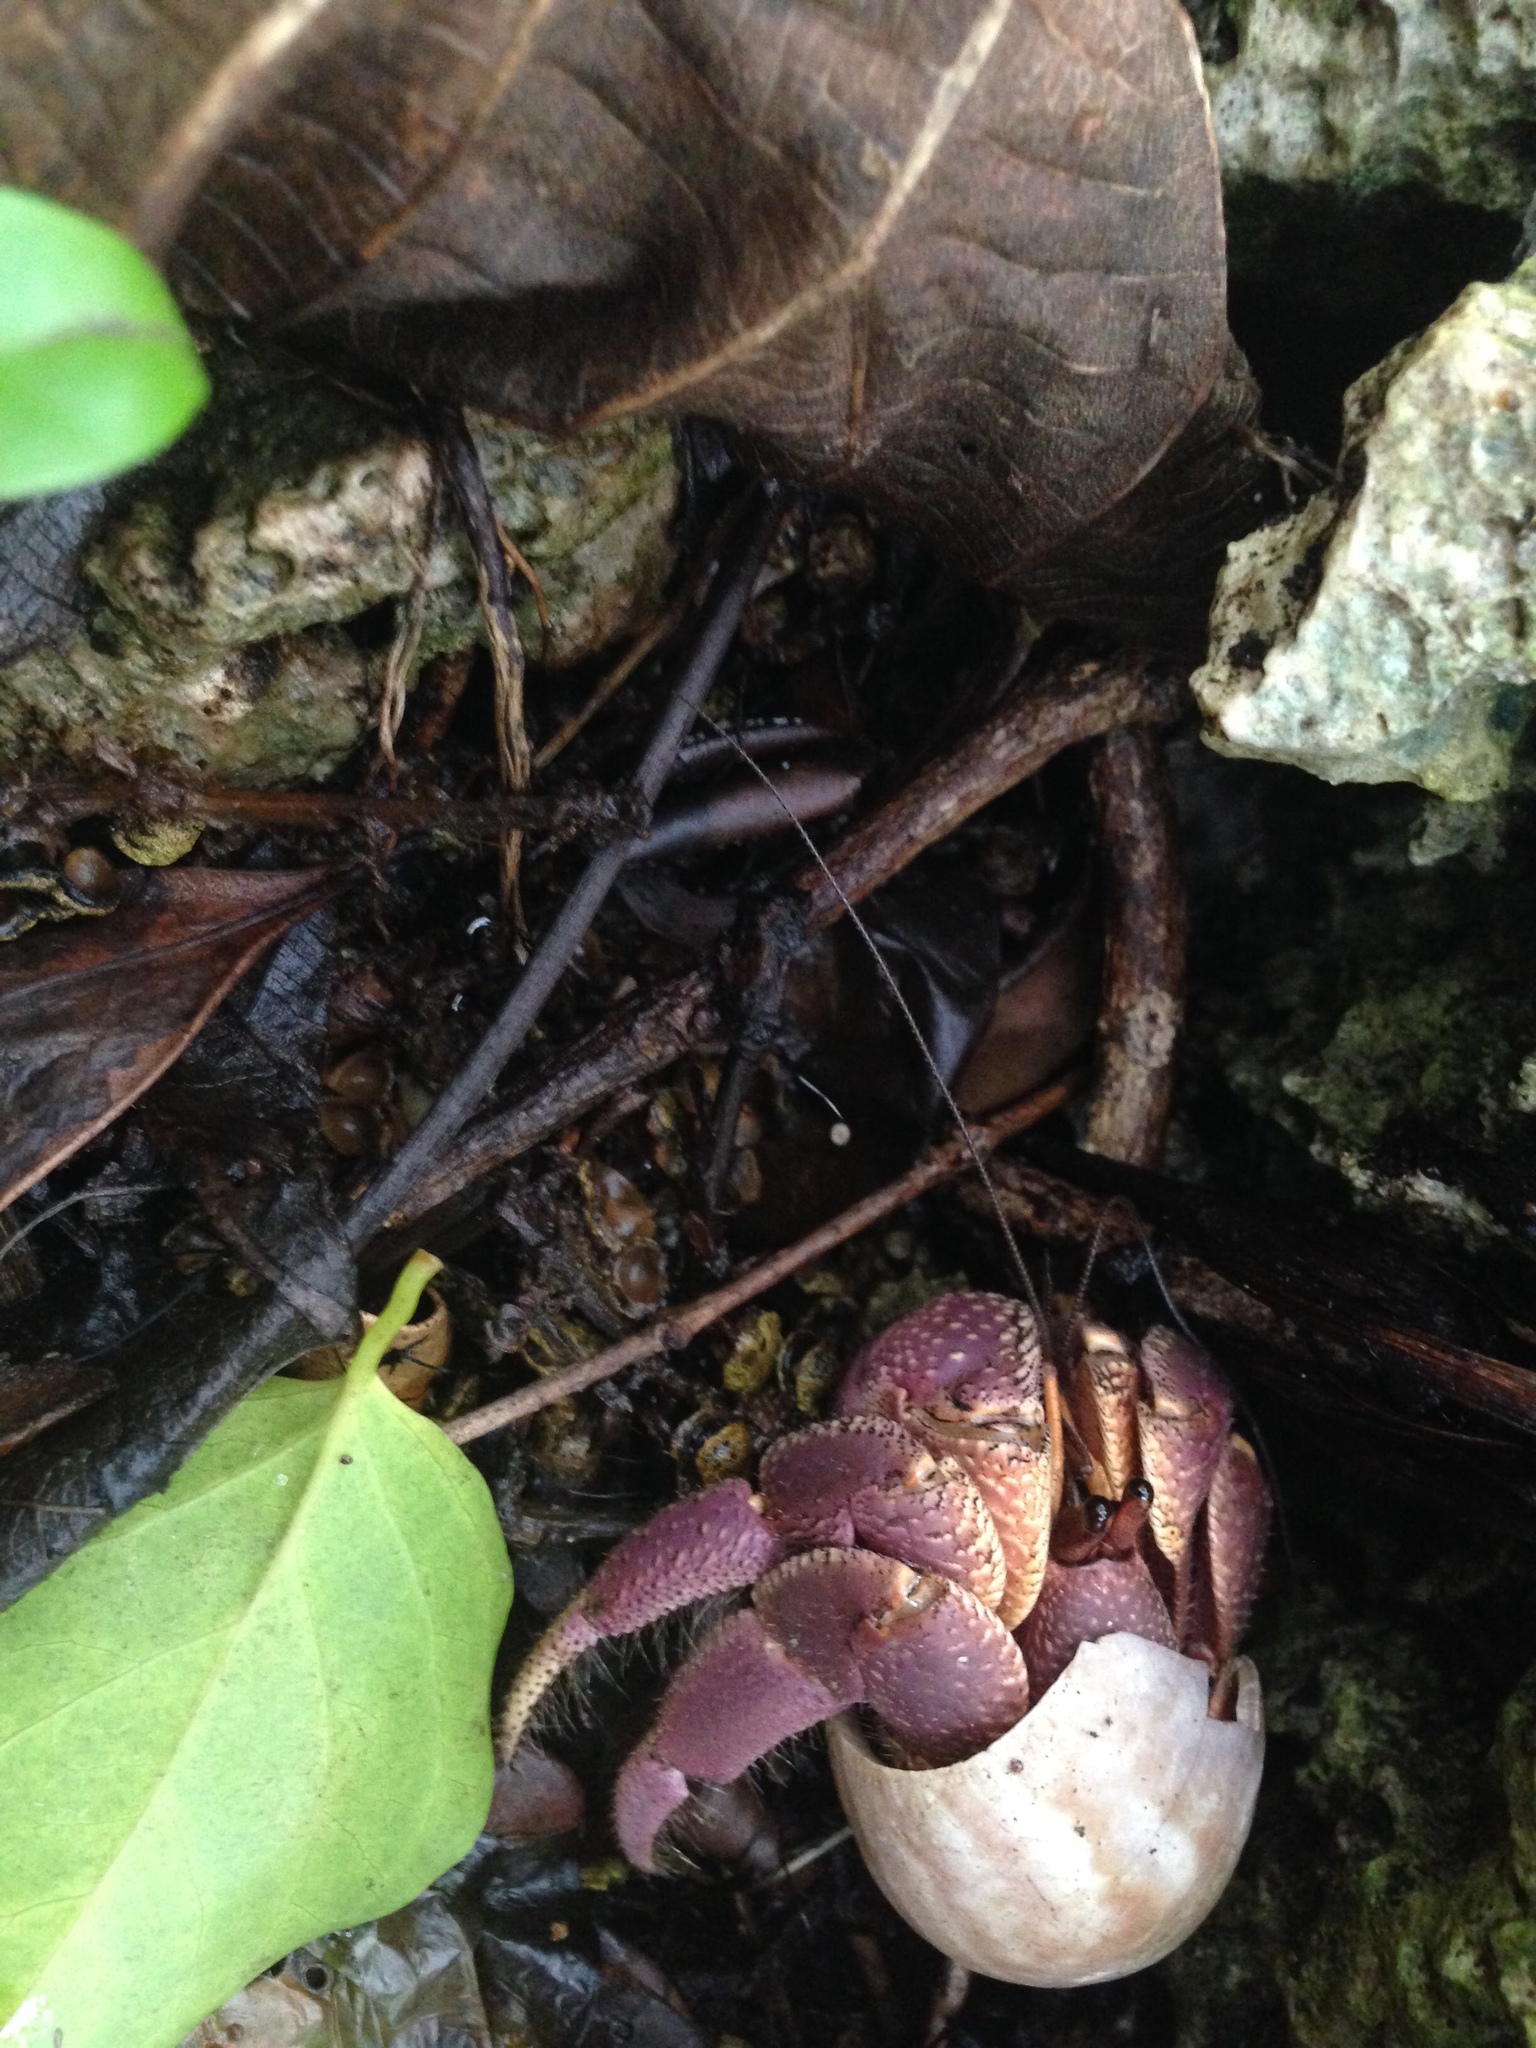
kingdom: Animalia
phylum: Arthropoda
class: Malacostraca
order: Decapoda
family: Coenobitidae
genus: Coenobita
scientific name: Coenobita brevimanus
